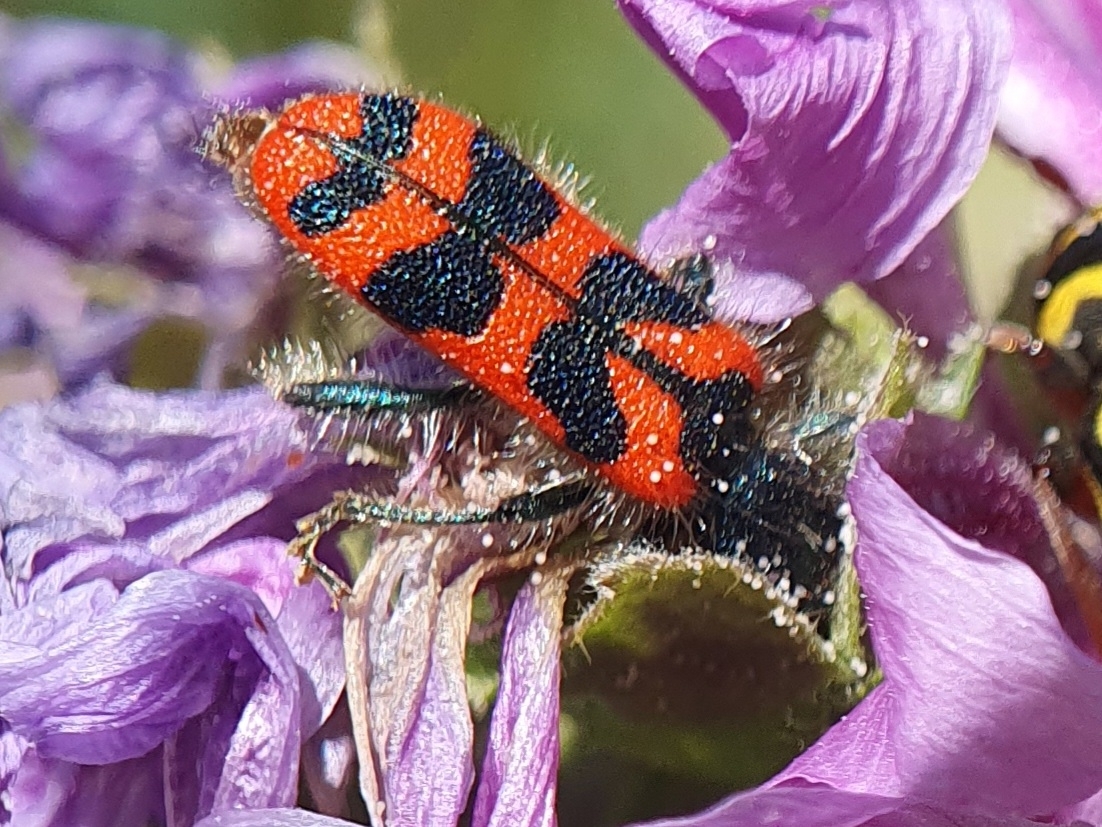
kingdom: Animalia
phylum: Arthropoda
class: Insecta
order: Coleoptera
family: Cleridae
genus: Trichodes
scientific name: Trichodes umbellatarum
